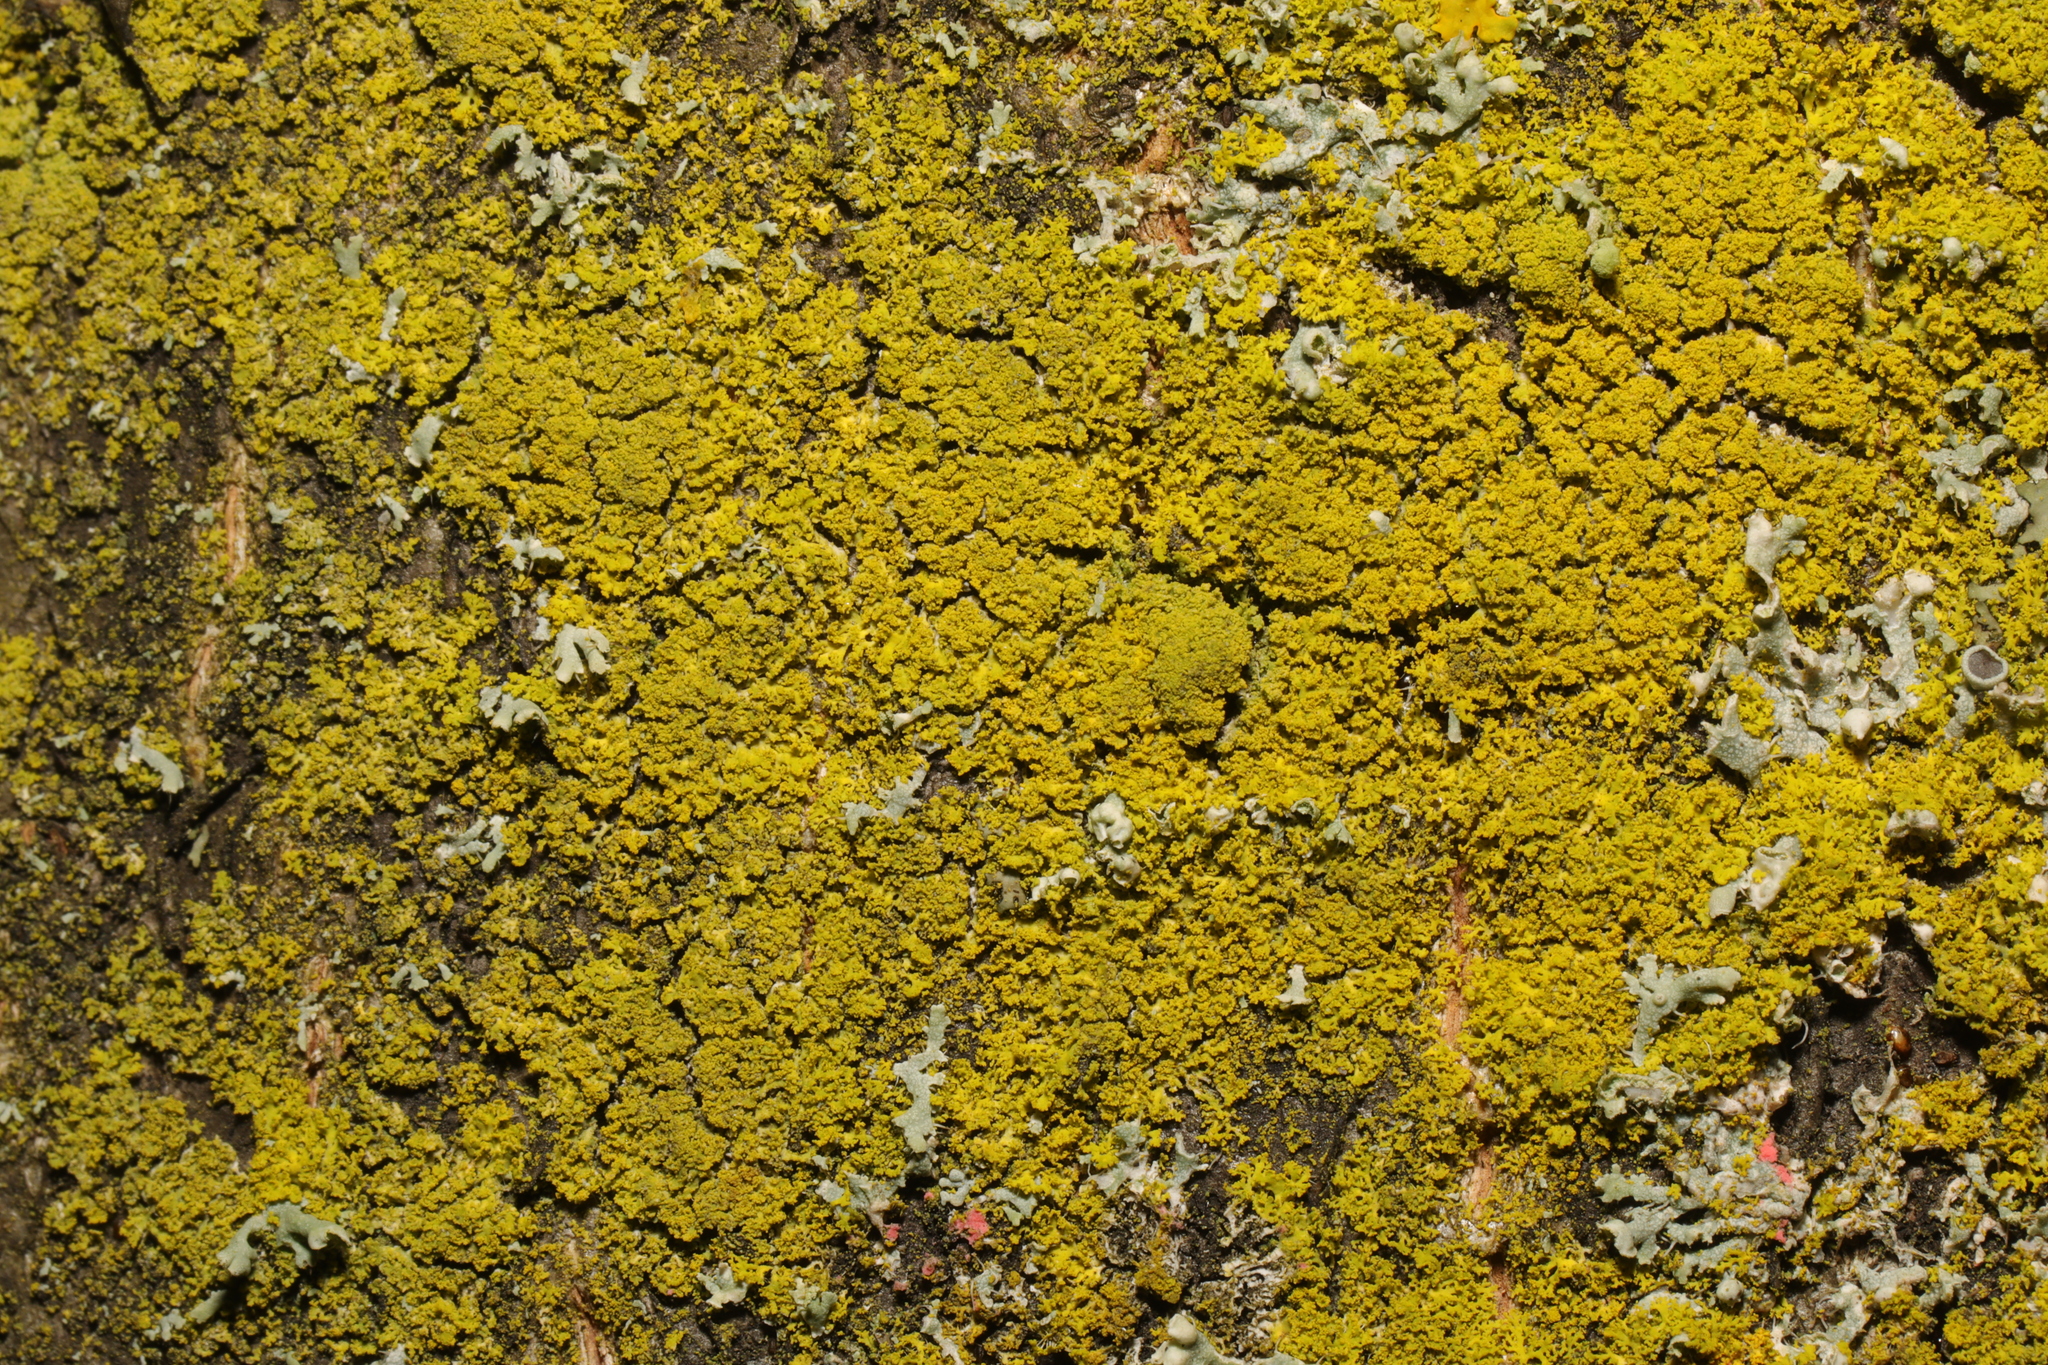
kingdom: Fungi
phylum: Ascomycota
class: Candelariomycetes
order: Candelariales
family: Candelariaceae
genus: Candelaria
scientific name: Candelaria concolor
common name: Candleflame lichen
